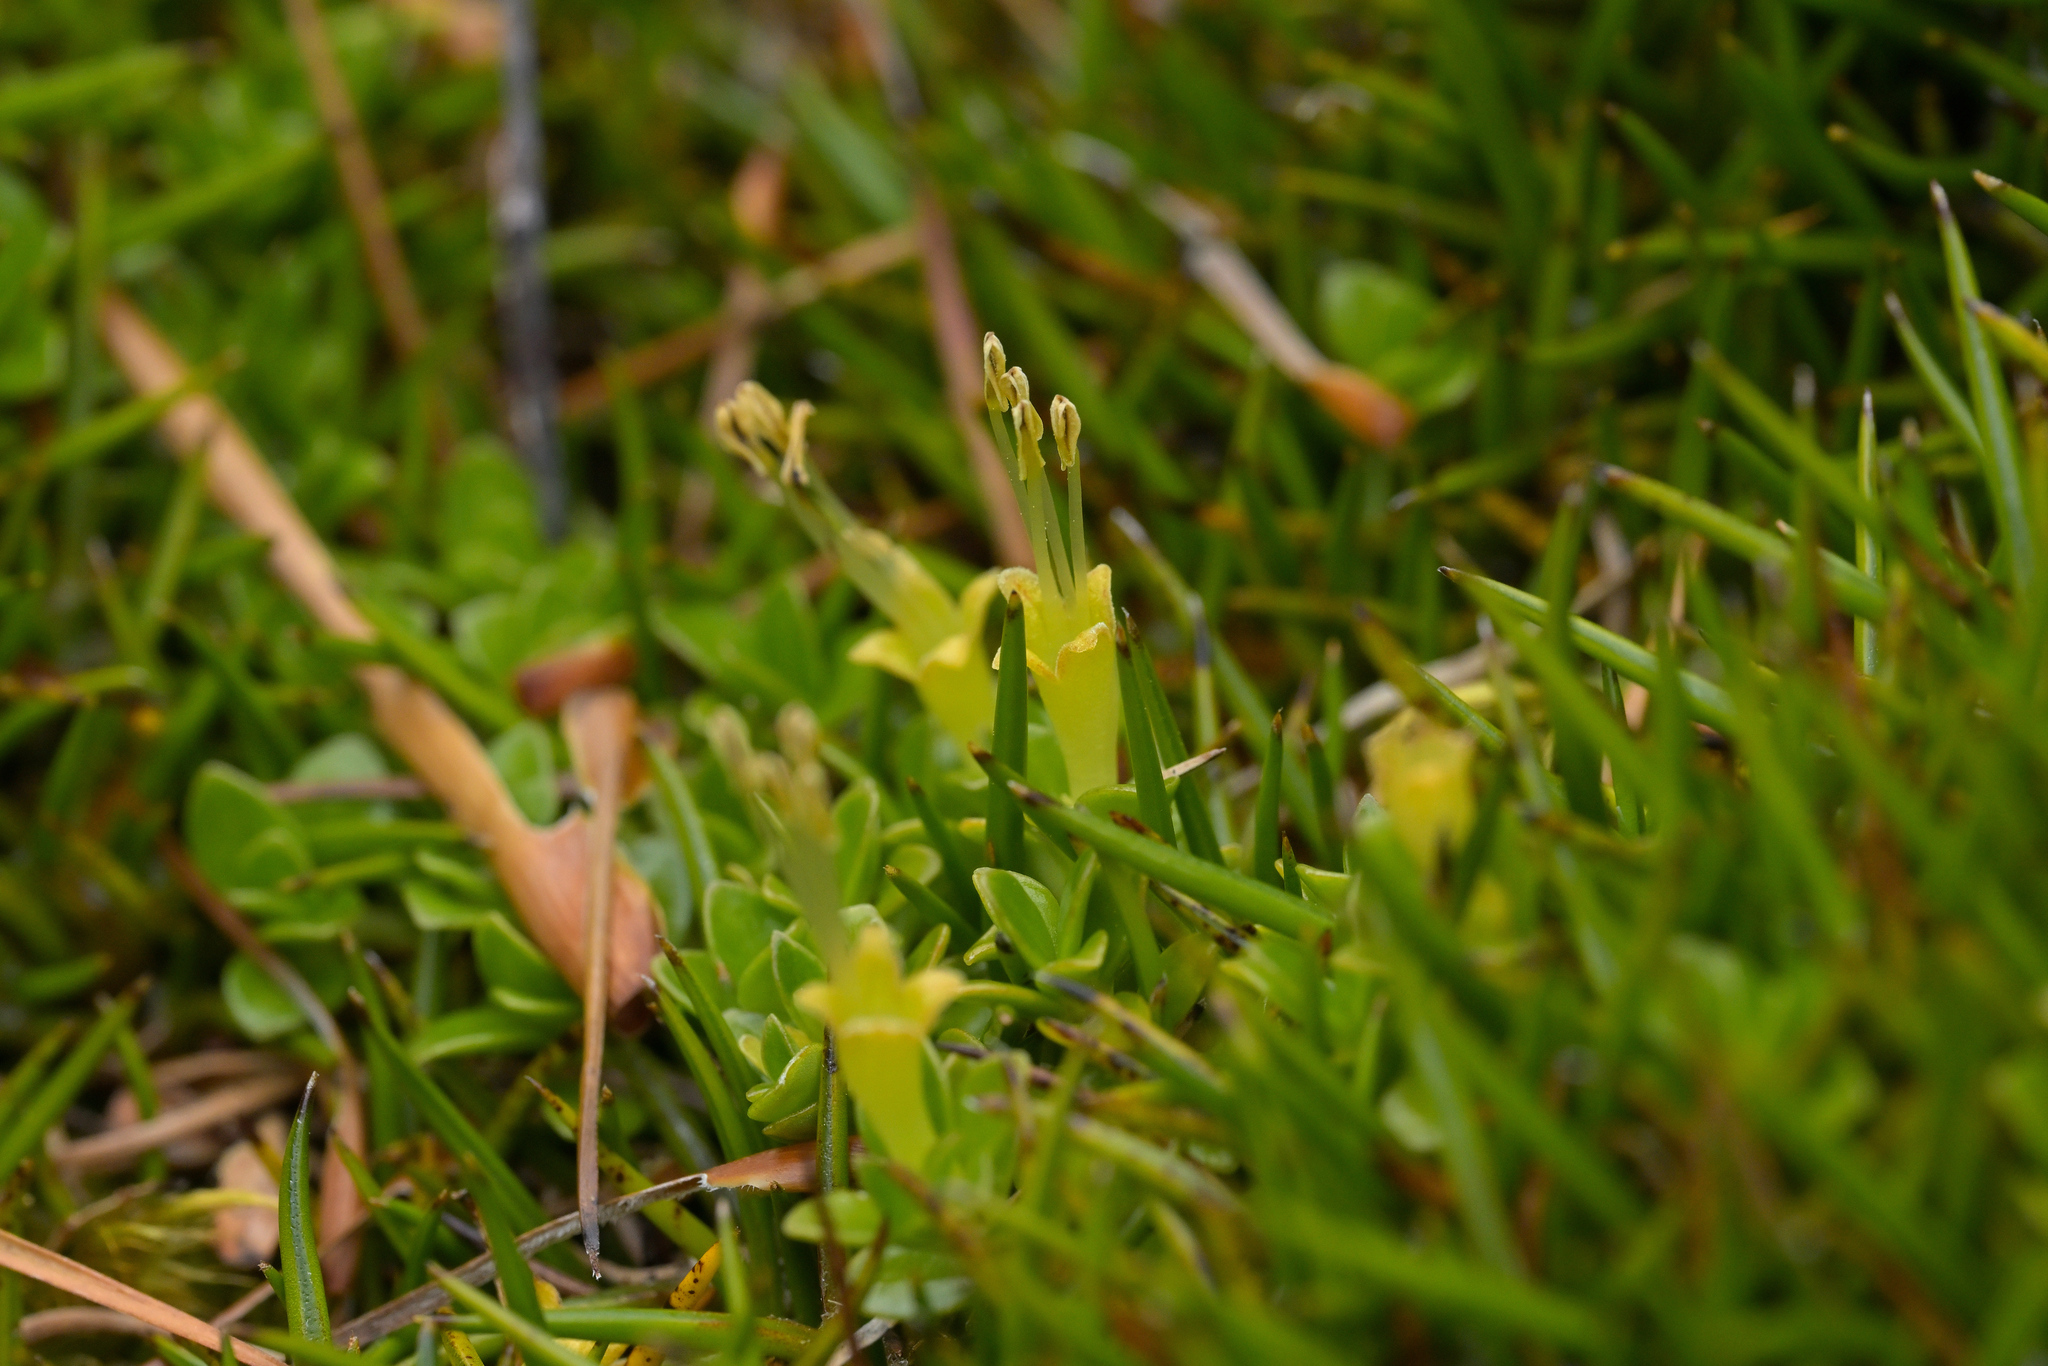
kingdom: Plantae
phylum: Tracheophyta
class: Magnoliopsida
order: Gentianales
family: Rubiaceae
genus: Coprosma
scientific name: Coprosma perpusilla
